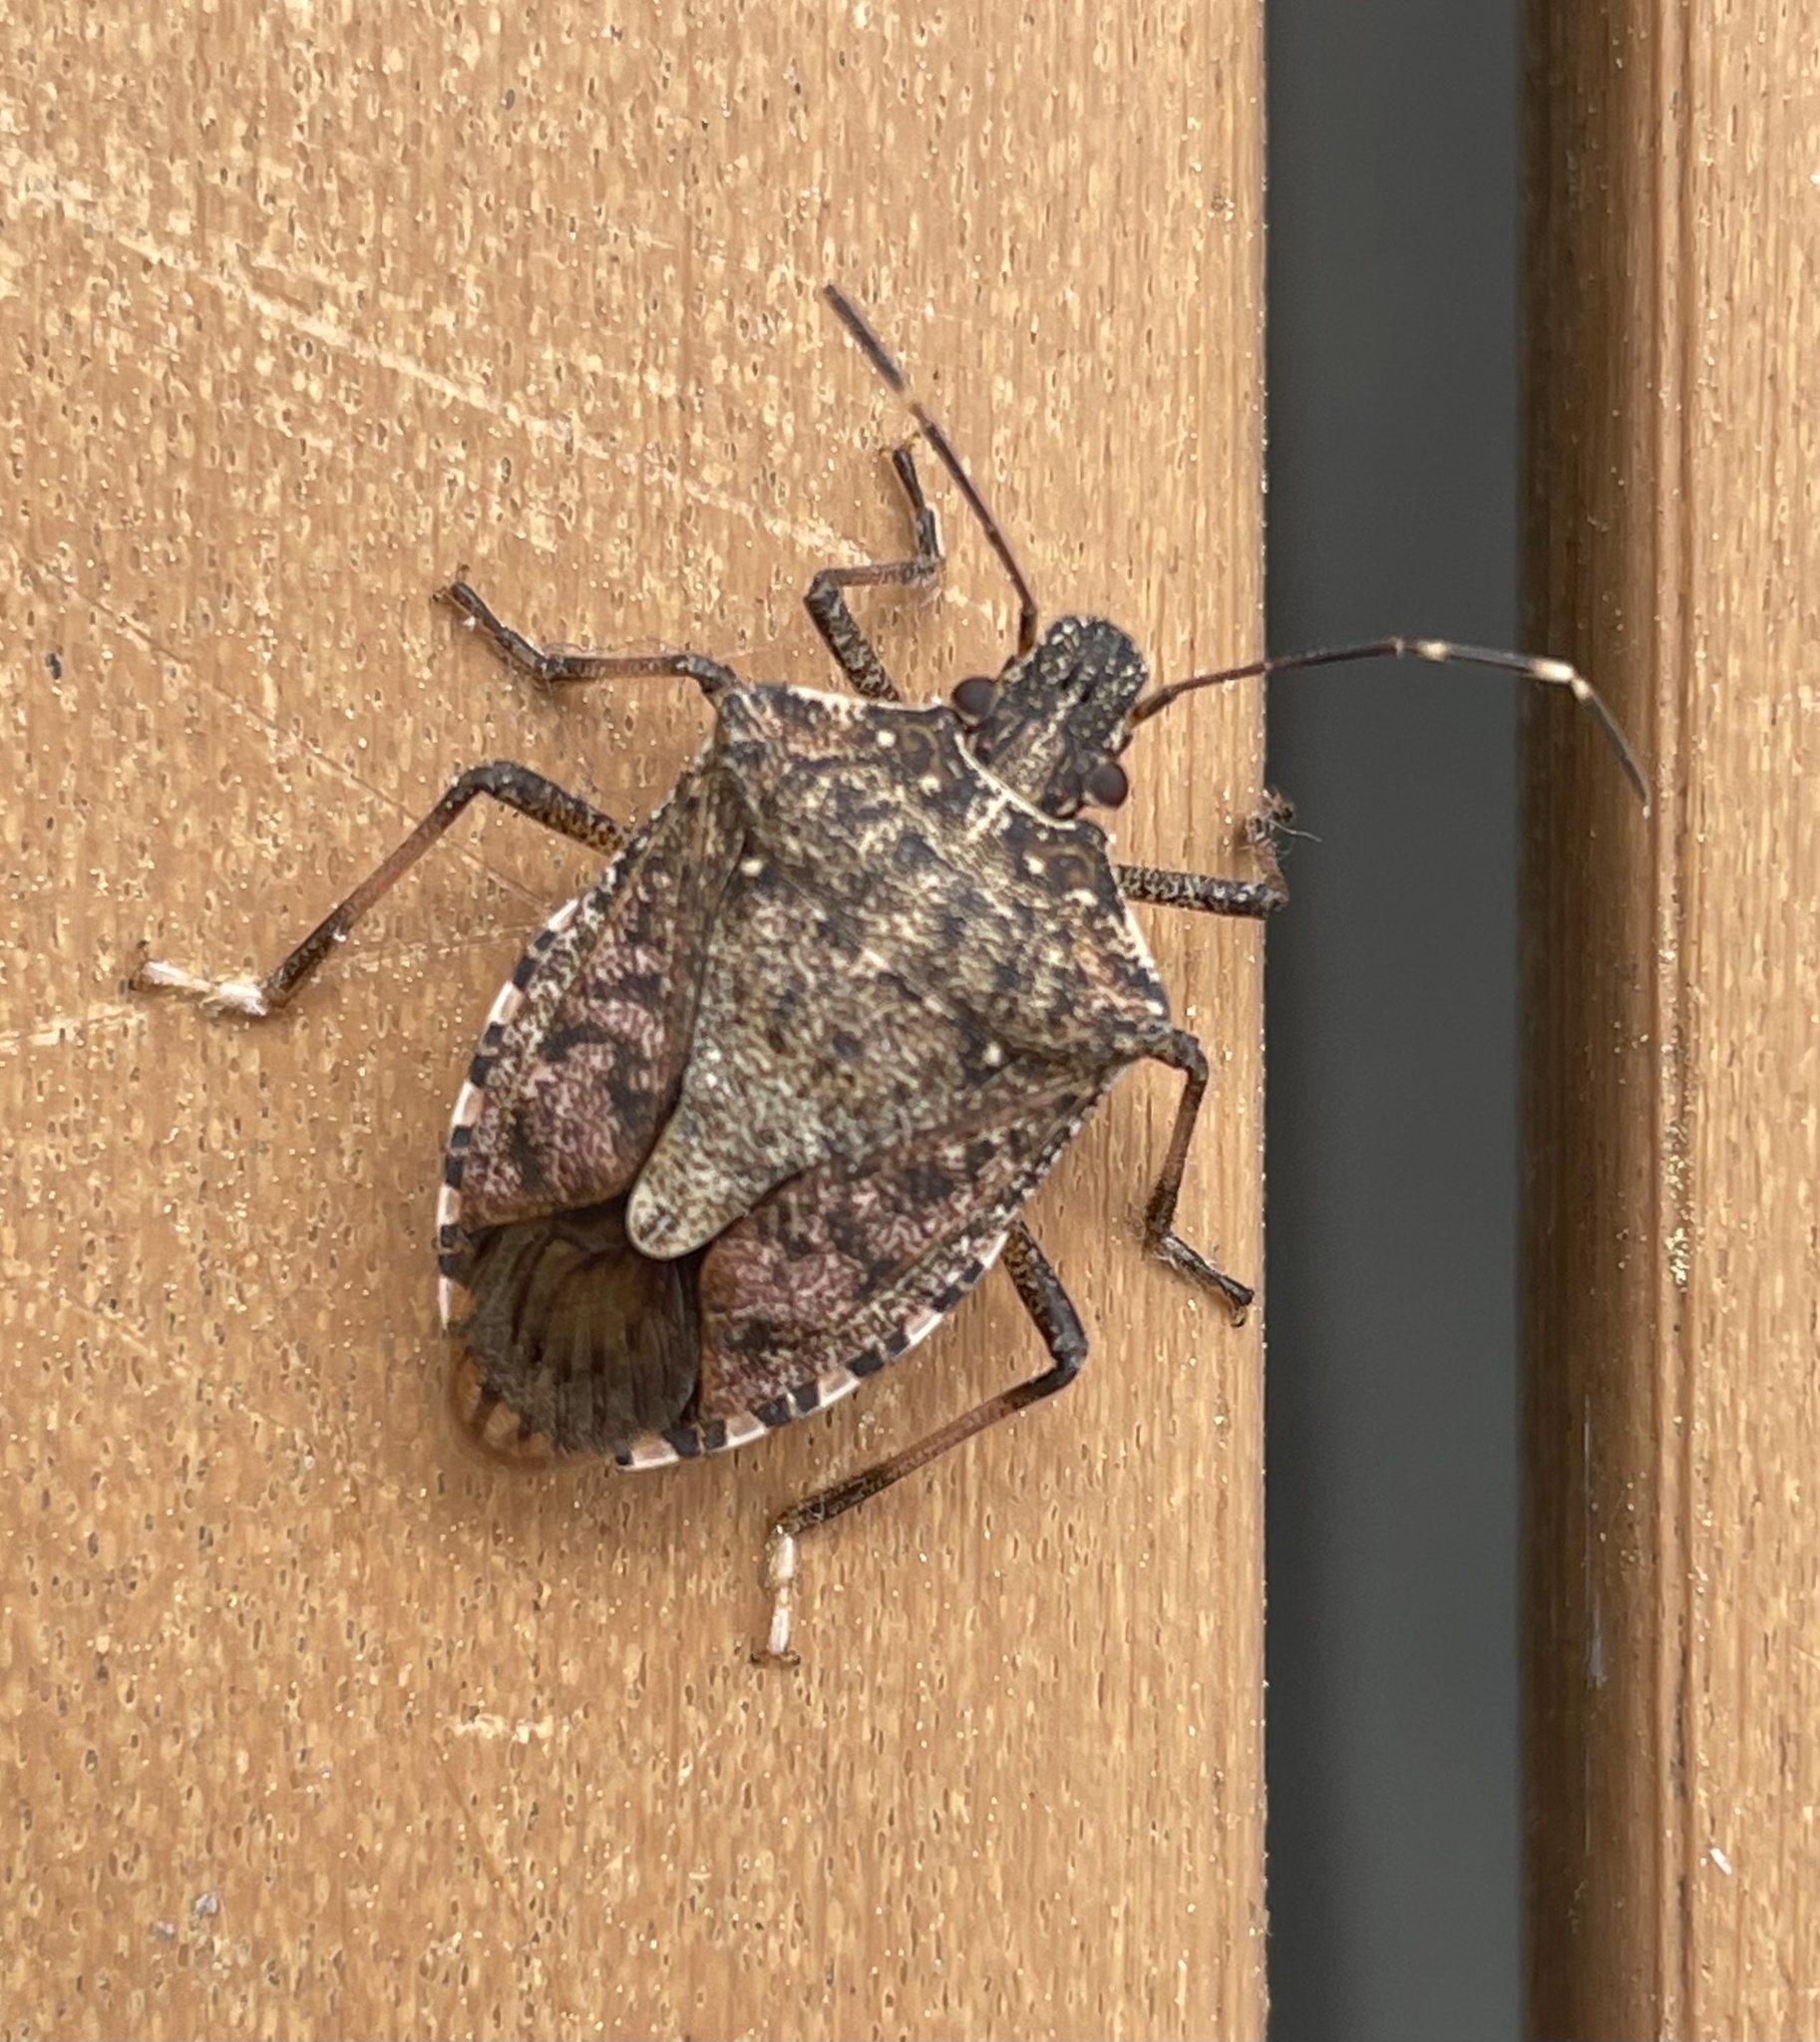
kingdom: Animalia
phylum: Arthropoda
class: Insecta
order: Hemiptera
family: Pentatomidae
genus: Halyomorpha
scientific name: Halyomorpha halys
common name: Brown marmorated stink bug
